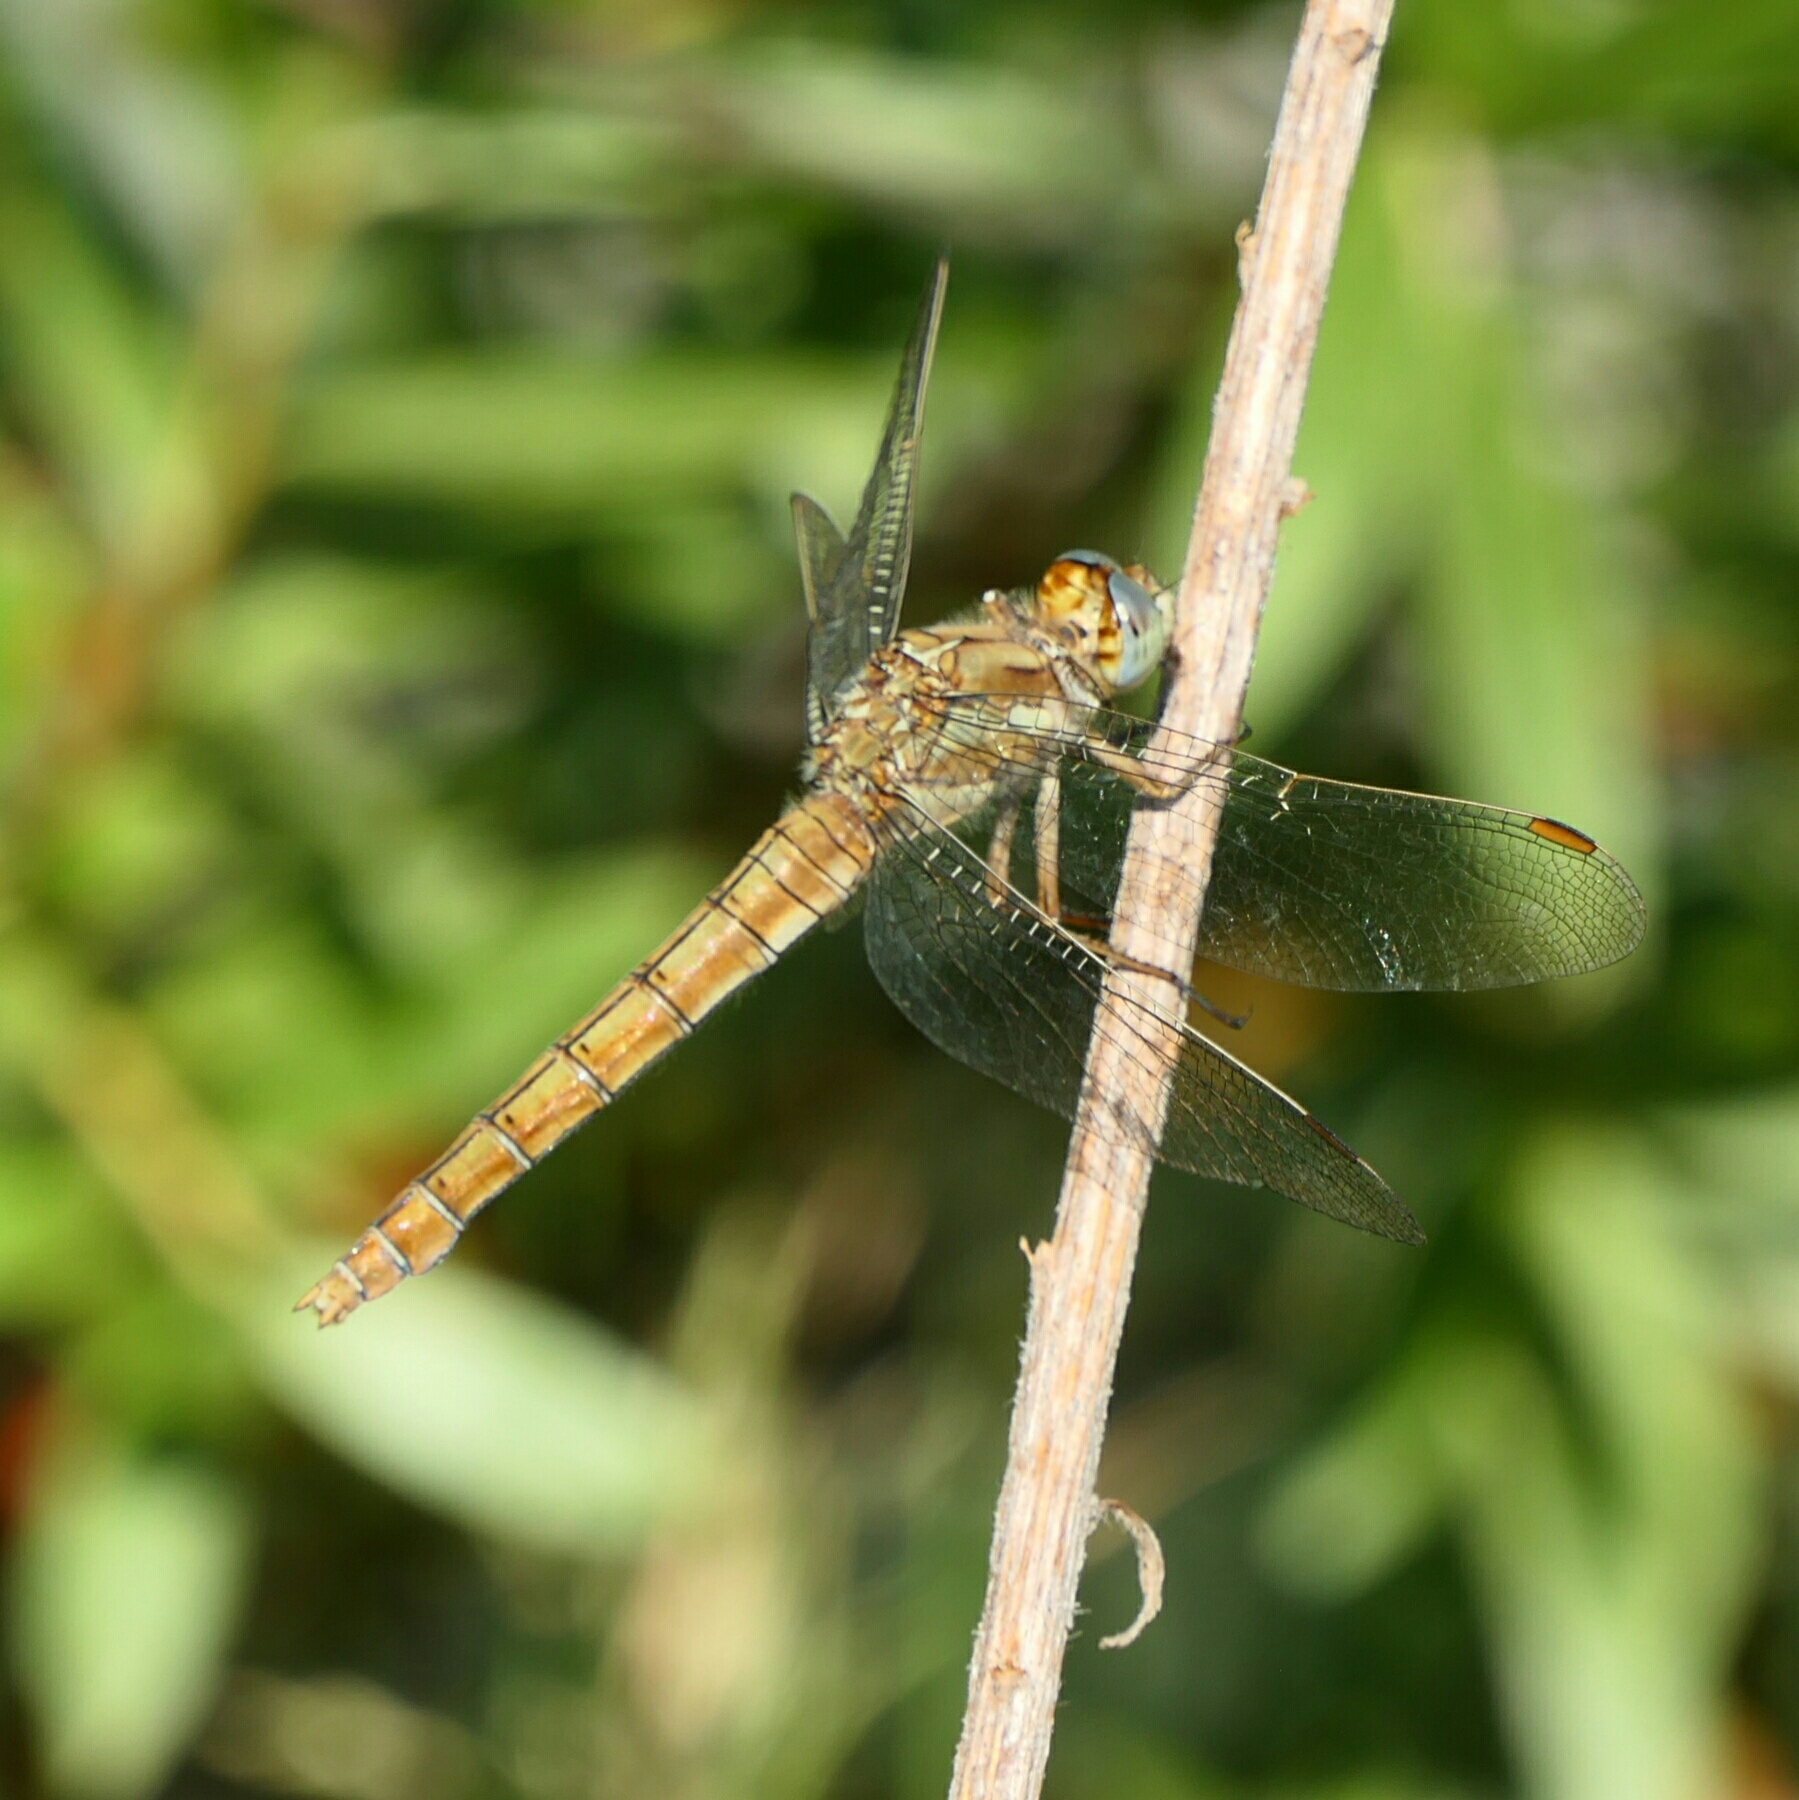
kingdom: Animalia
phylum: Arthropoda
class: Insecta
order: Odonata
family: Libellulidae
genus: Orthetrum
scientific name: Orthetrum brunneum
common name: Southern skimmer
